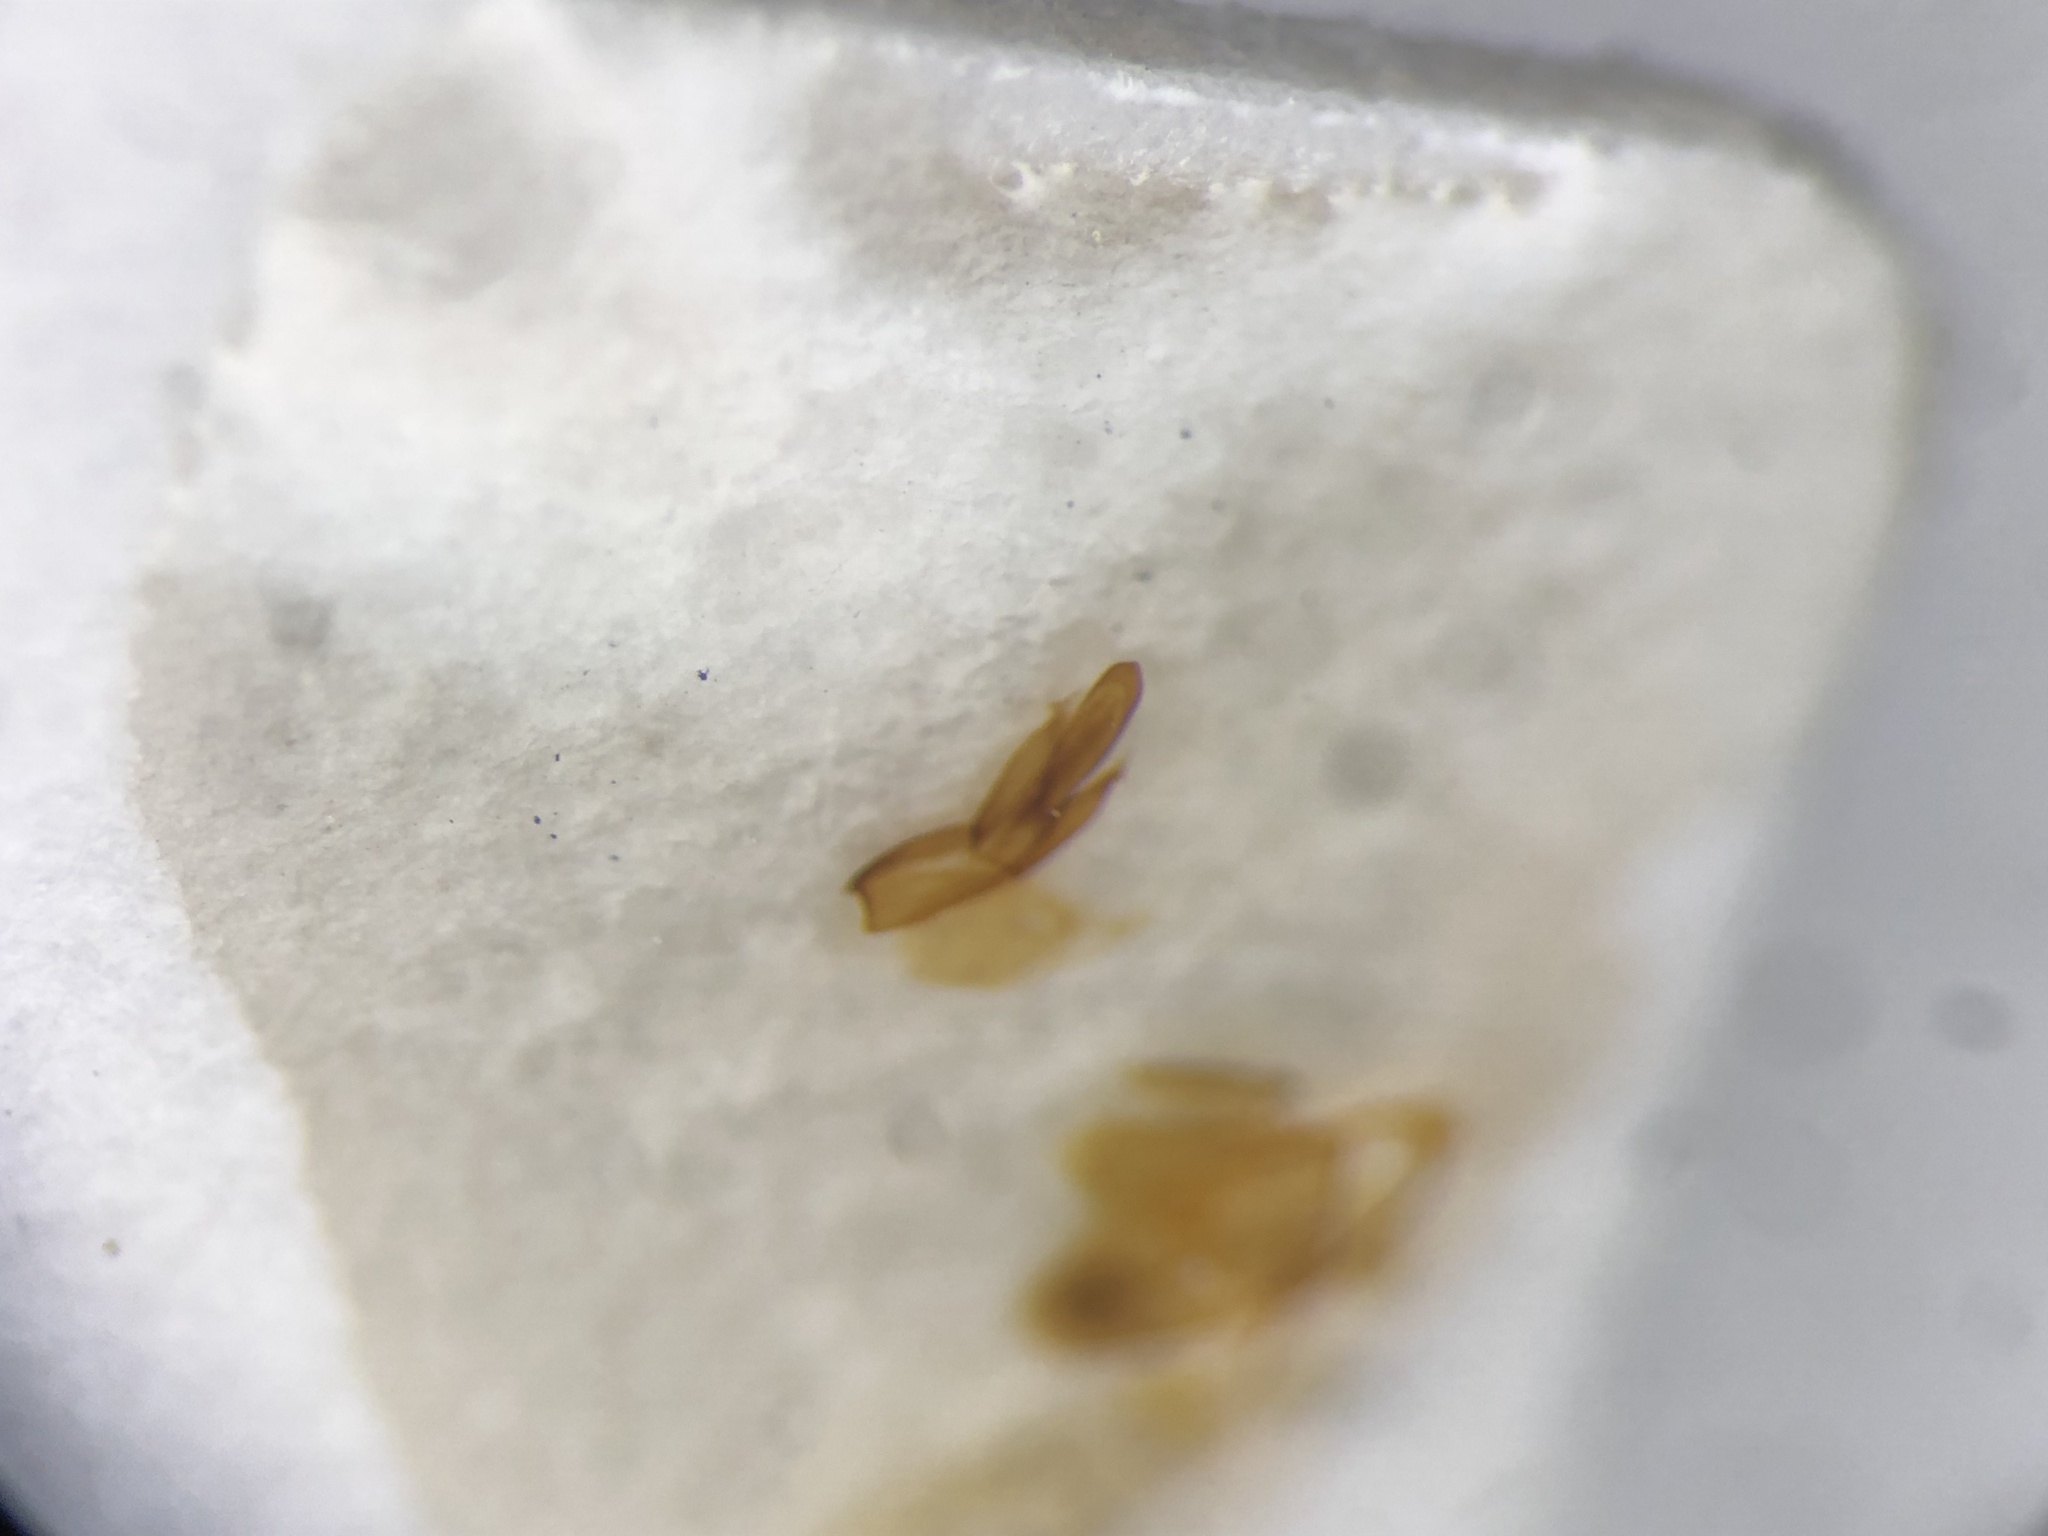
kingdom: Animalia
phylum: Arthropoda
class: Insecta
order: Coleoptera
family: Elateridae
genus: Agriotes
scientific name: Agriotes mancus
